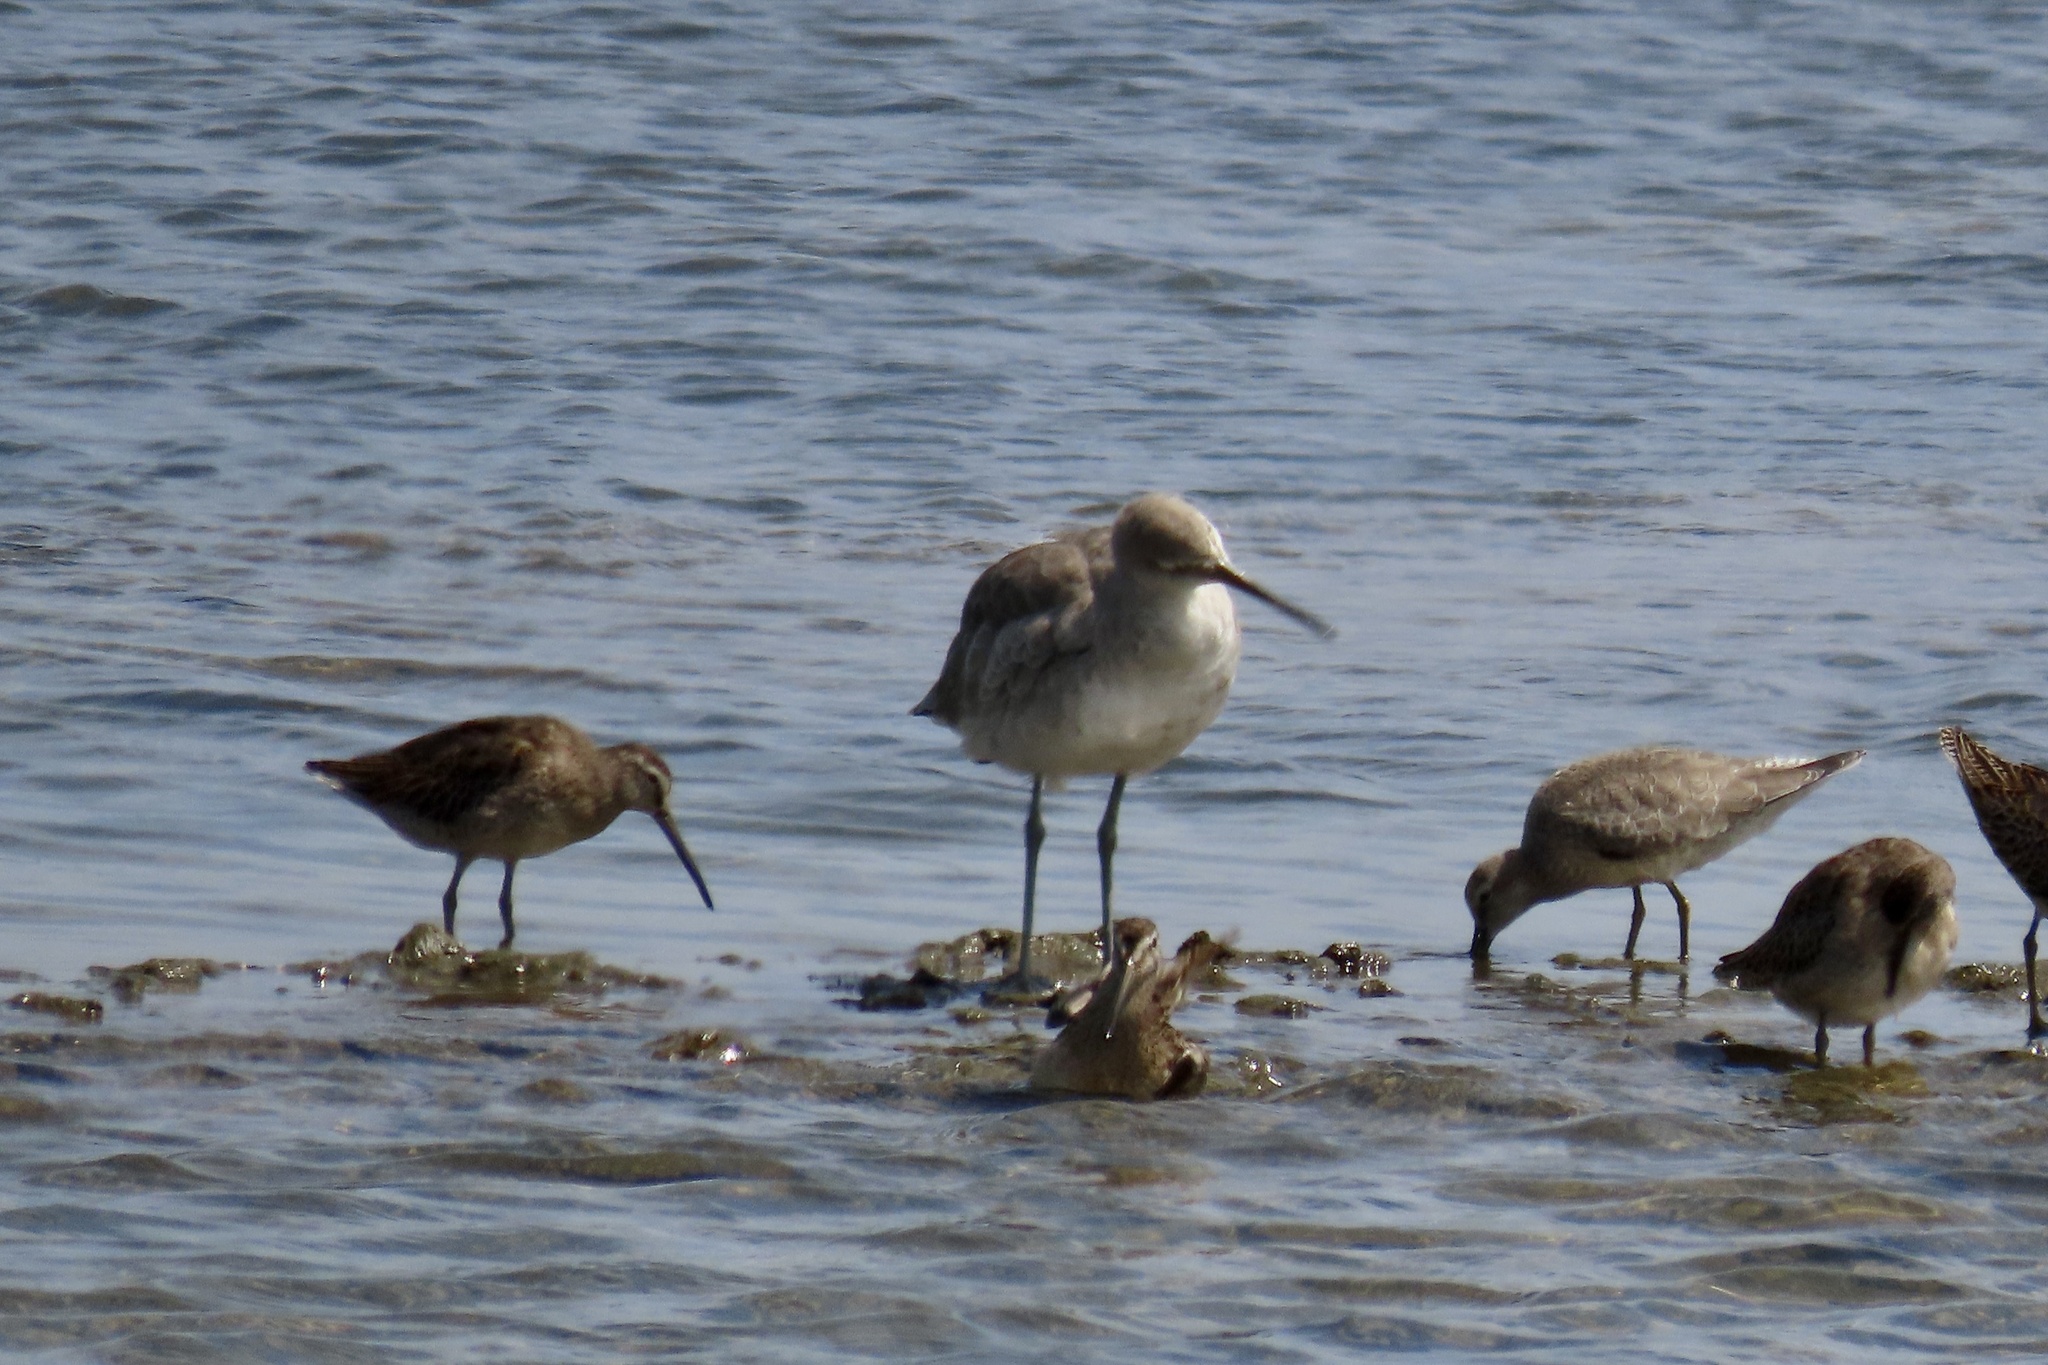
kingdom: Animalia
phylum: Chordata
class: Aves
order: Charadriiformes
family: Scolopacidae
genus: Tringa
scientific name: Tringa semipalmata
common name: Willet
